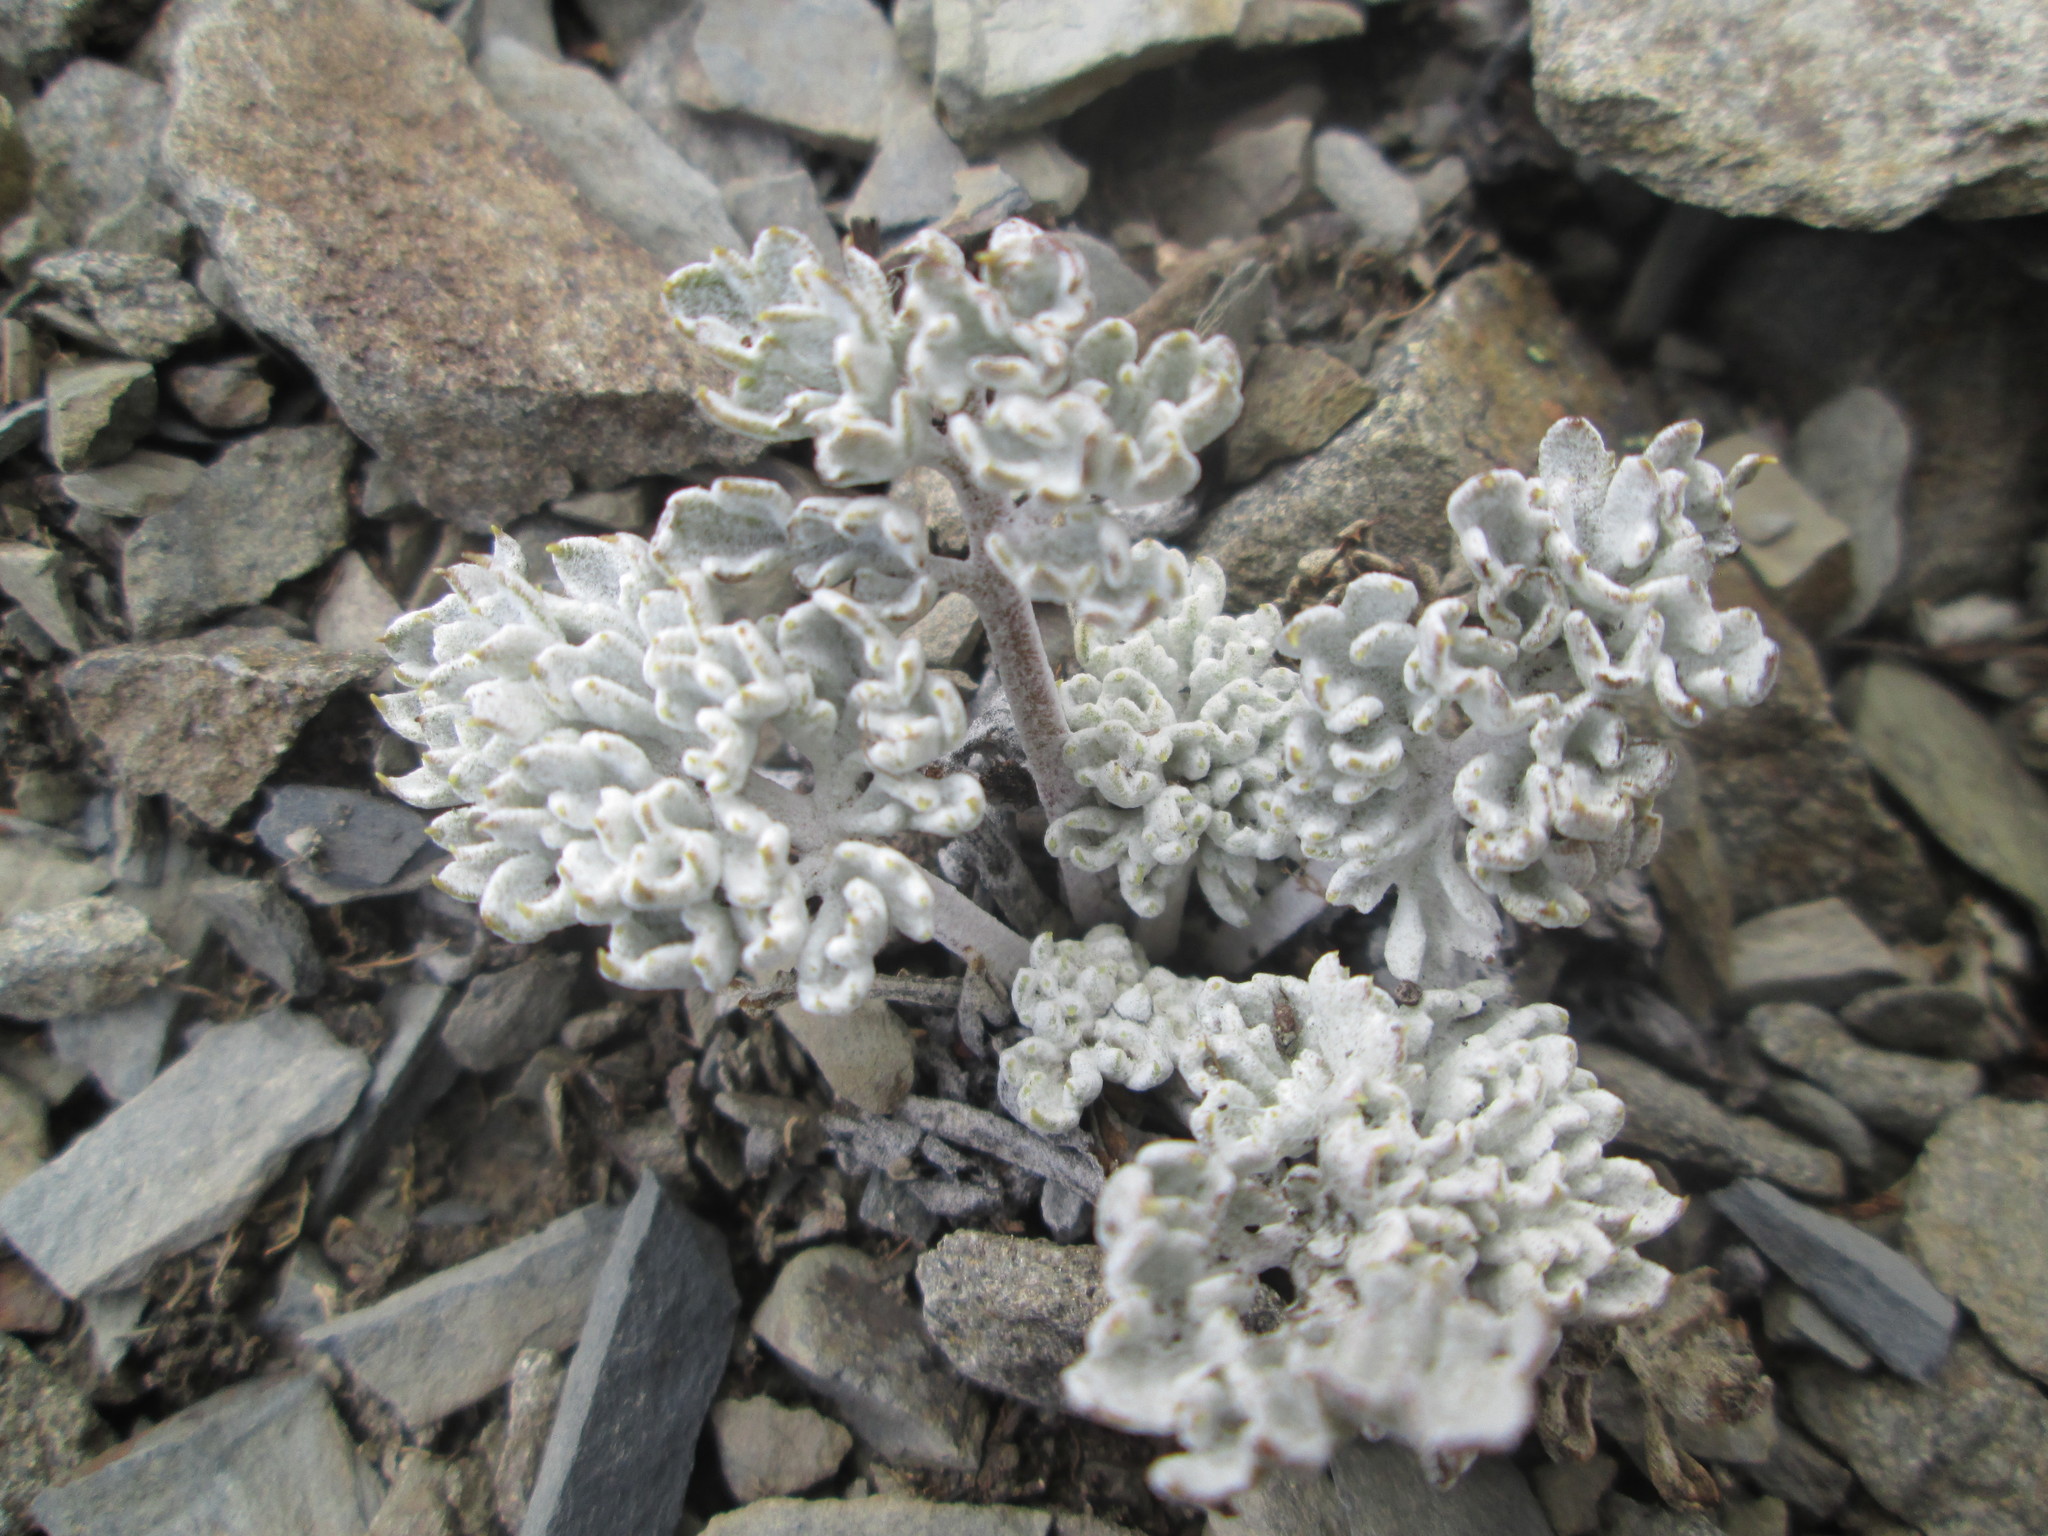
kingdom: Plantae
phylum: Tracheophyta
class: Magnoliopsida
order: Lamiales
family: Plantaginaceae
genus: Synthyris
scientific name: Synthyris lanuginosa
